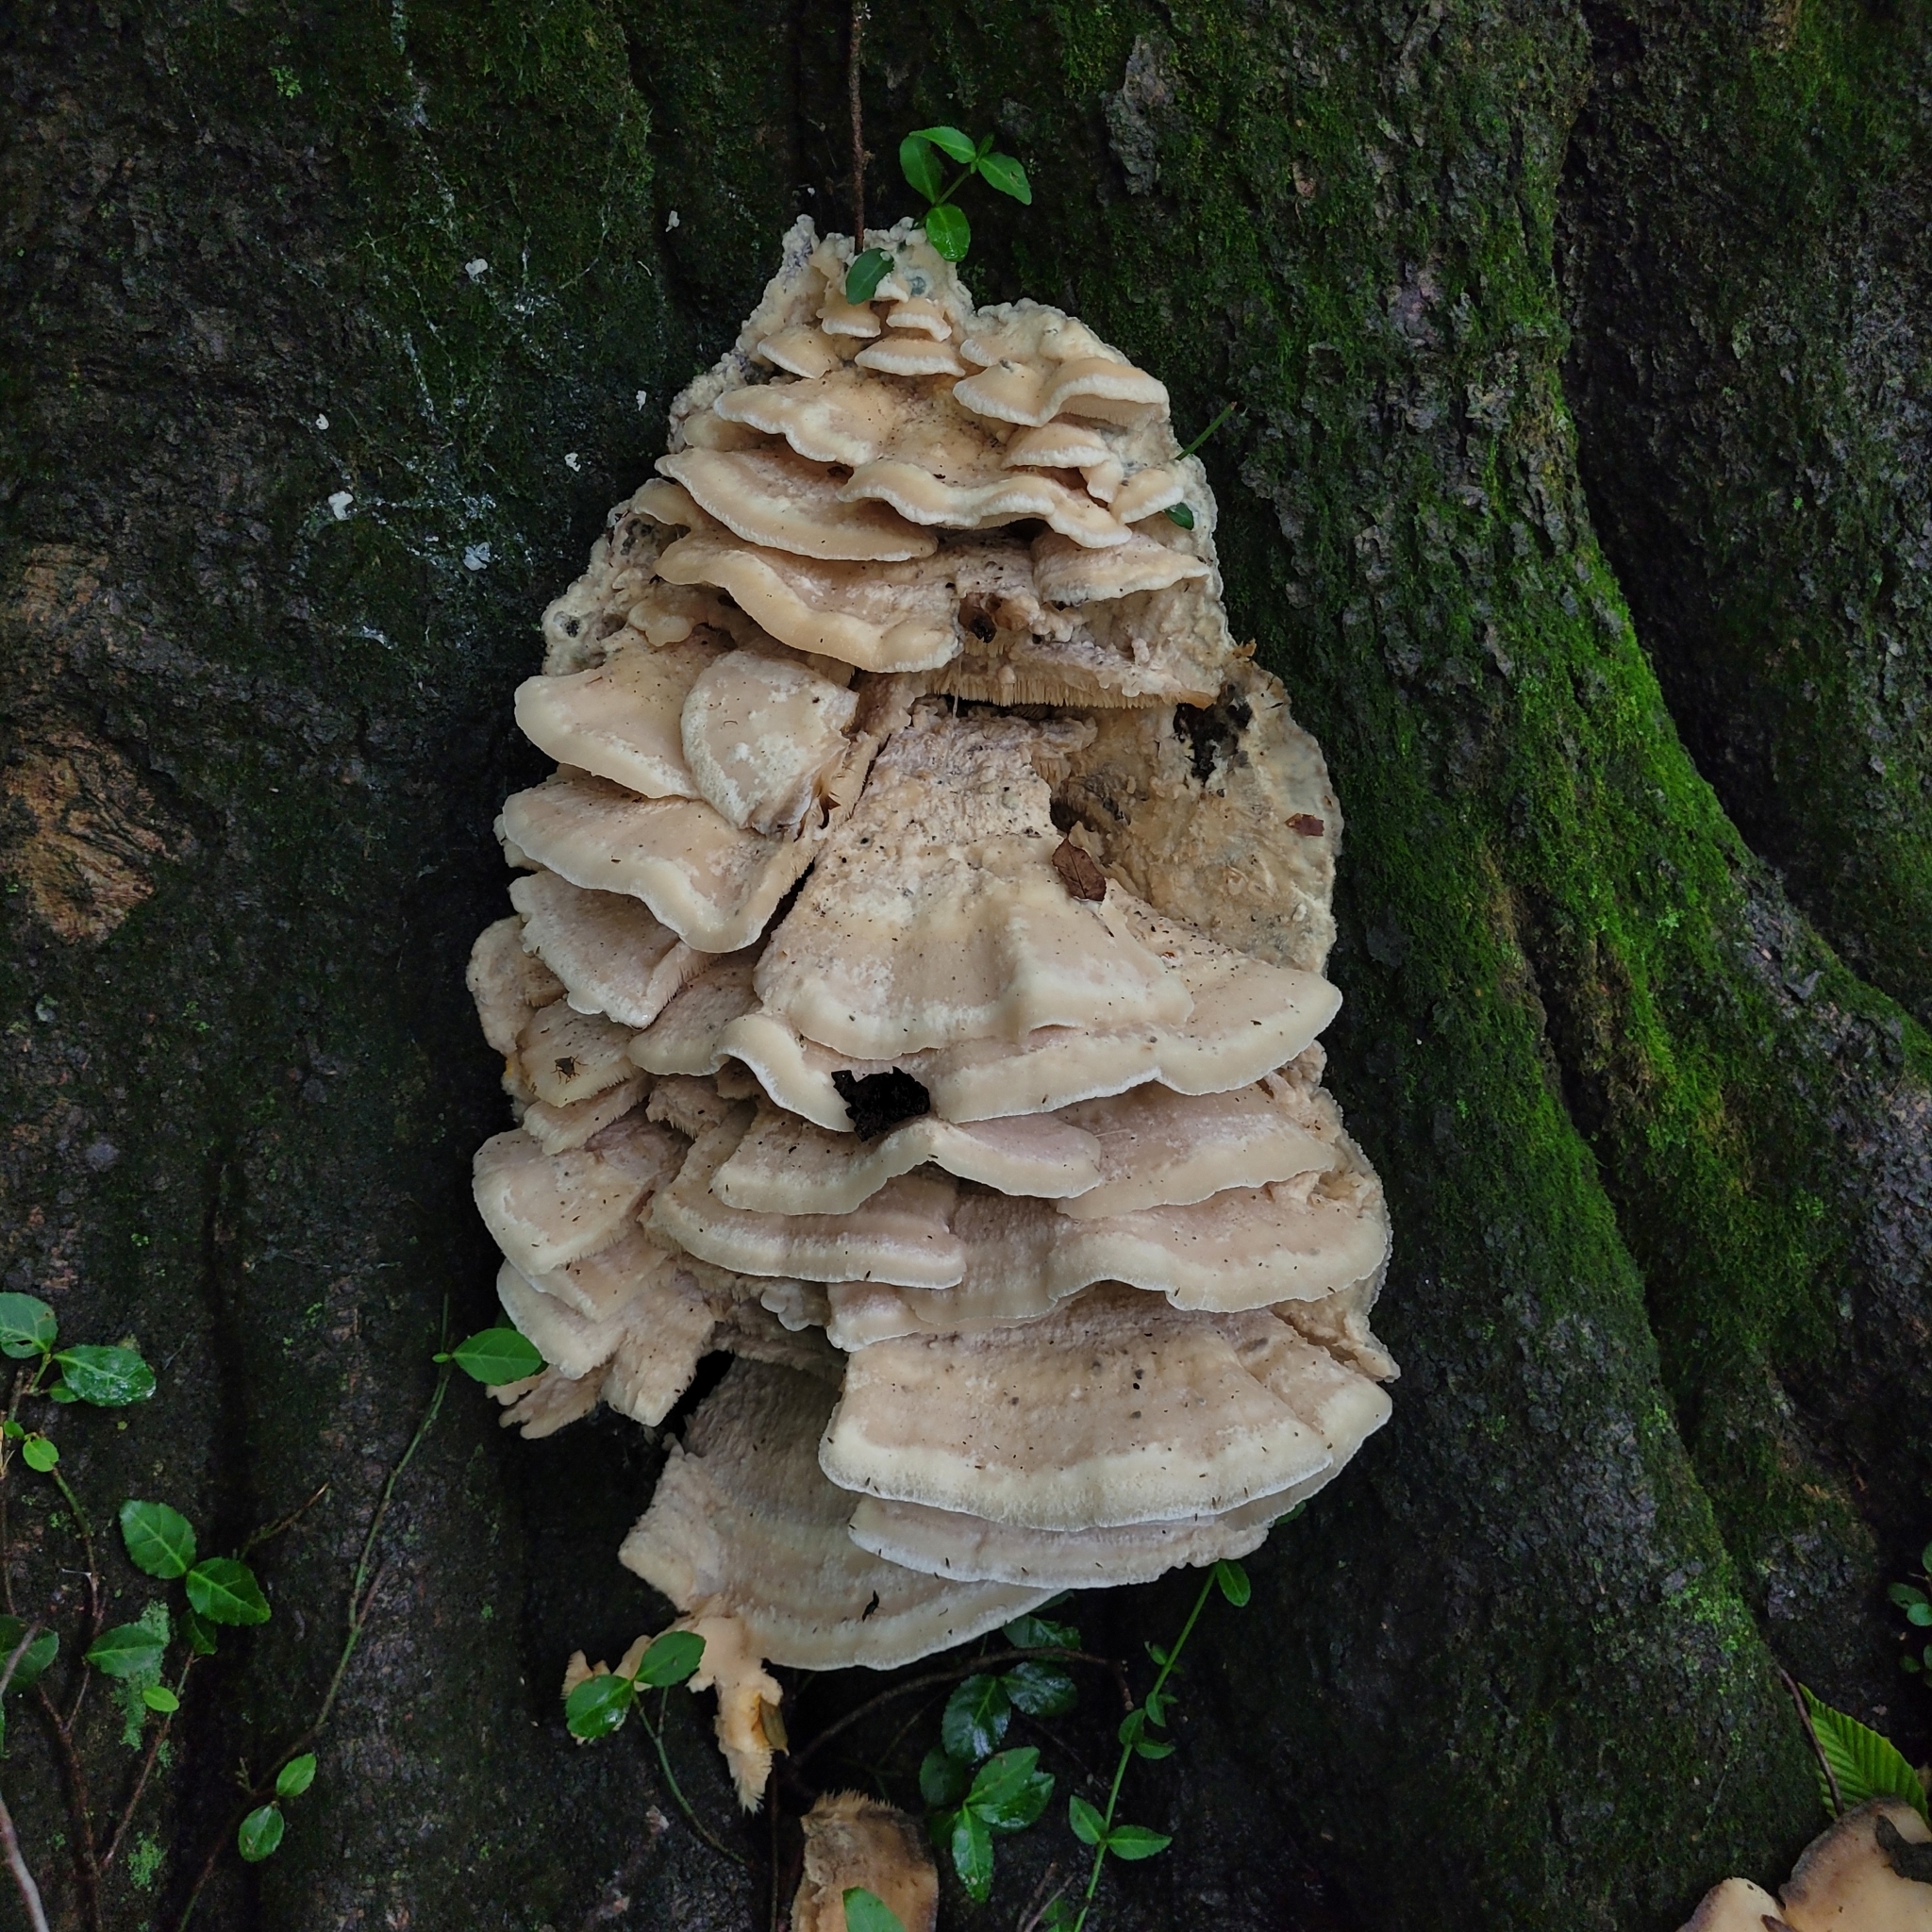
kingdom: Fungi
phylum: Basidiomycota
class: Agaricomycetes
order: Polyporales
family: Meruliaceae
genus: Climacodon
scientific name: Climacodon septentrionalis
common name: Northern tooth
